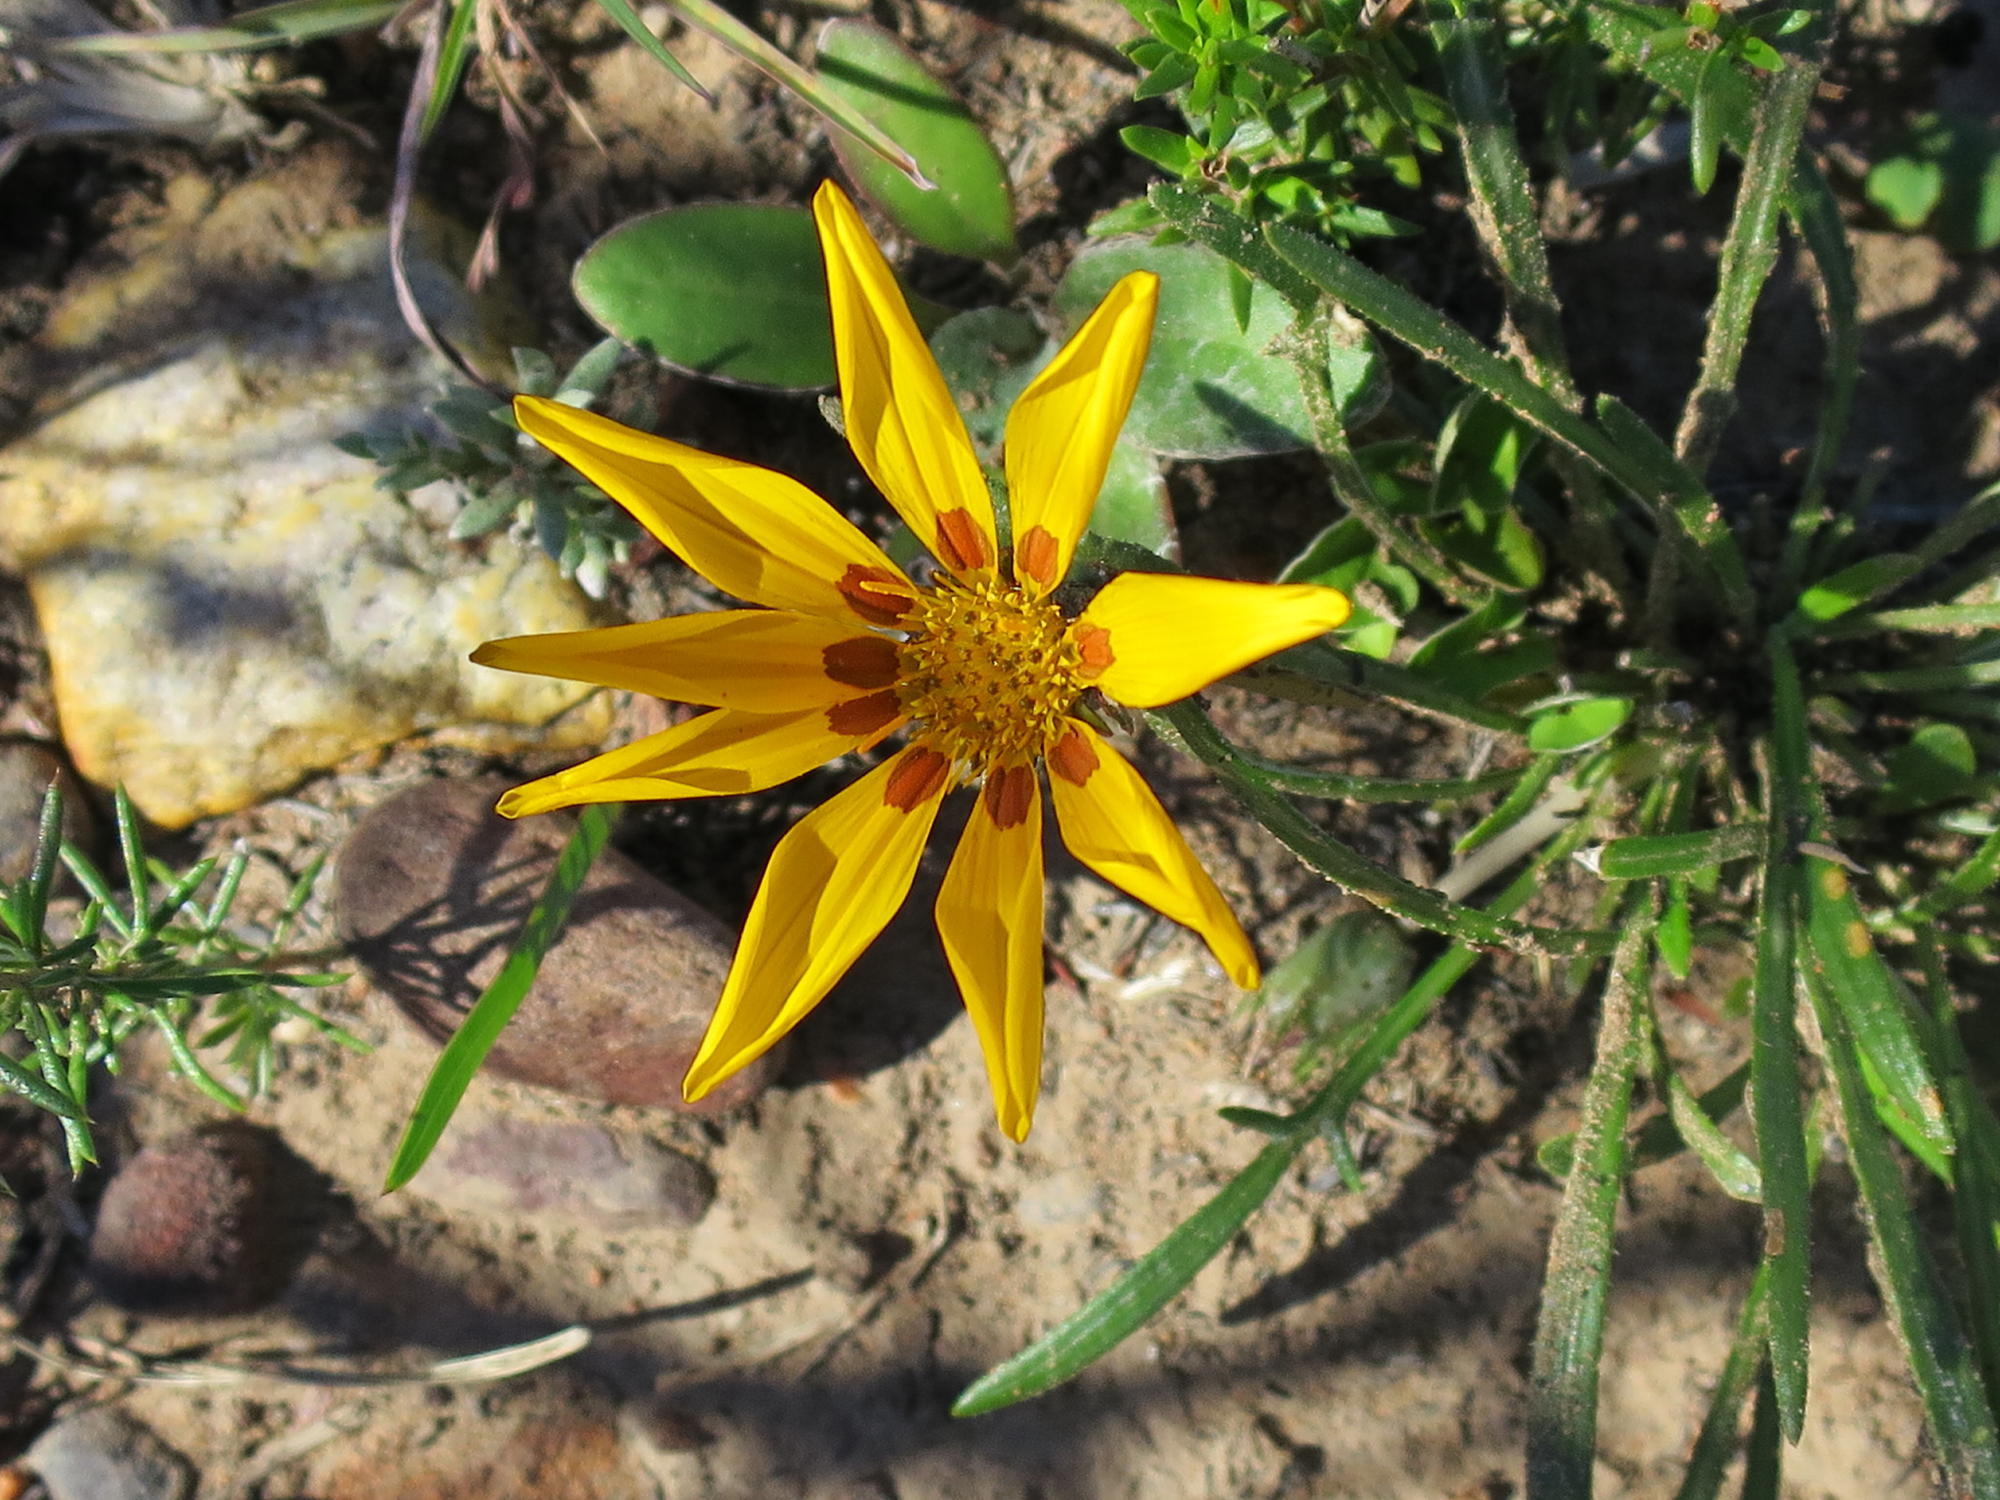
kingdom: Plantae
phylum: Tracheophyta
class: Magnoliopsida
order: Asterales
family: Asteraceae
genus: Gazania
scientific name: Gazania linearis
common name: Treasureflower
